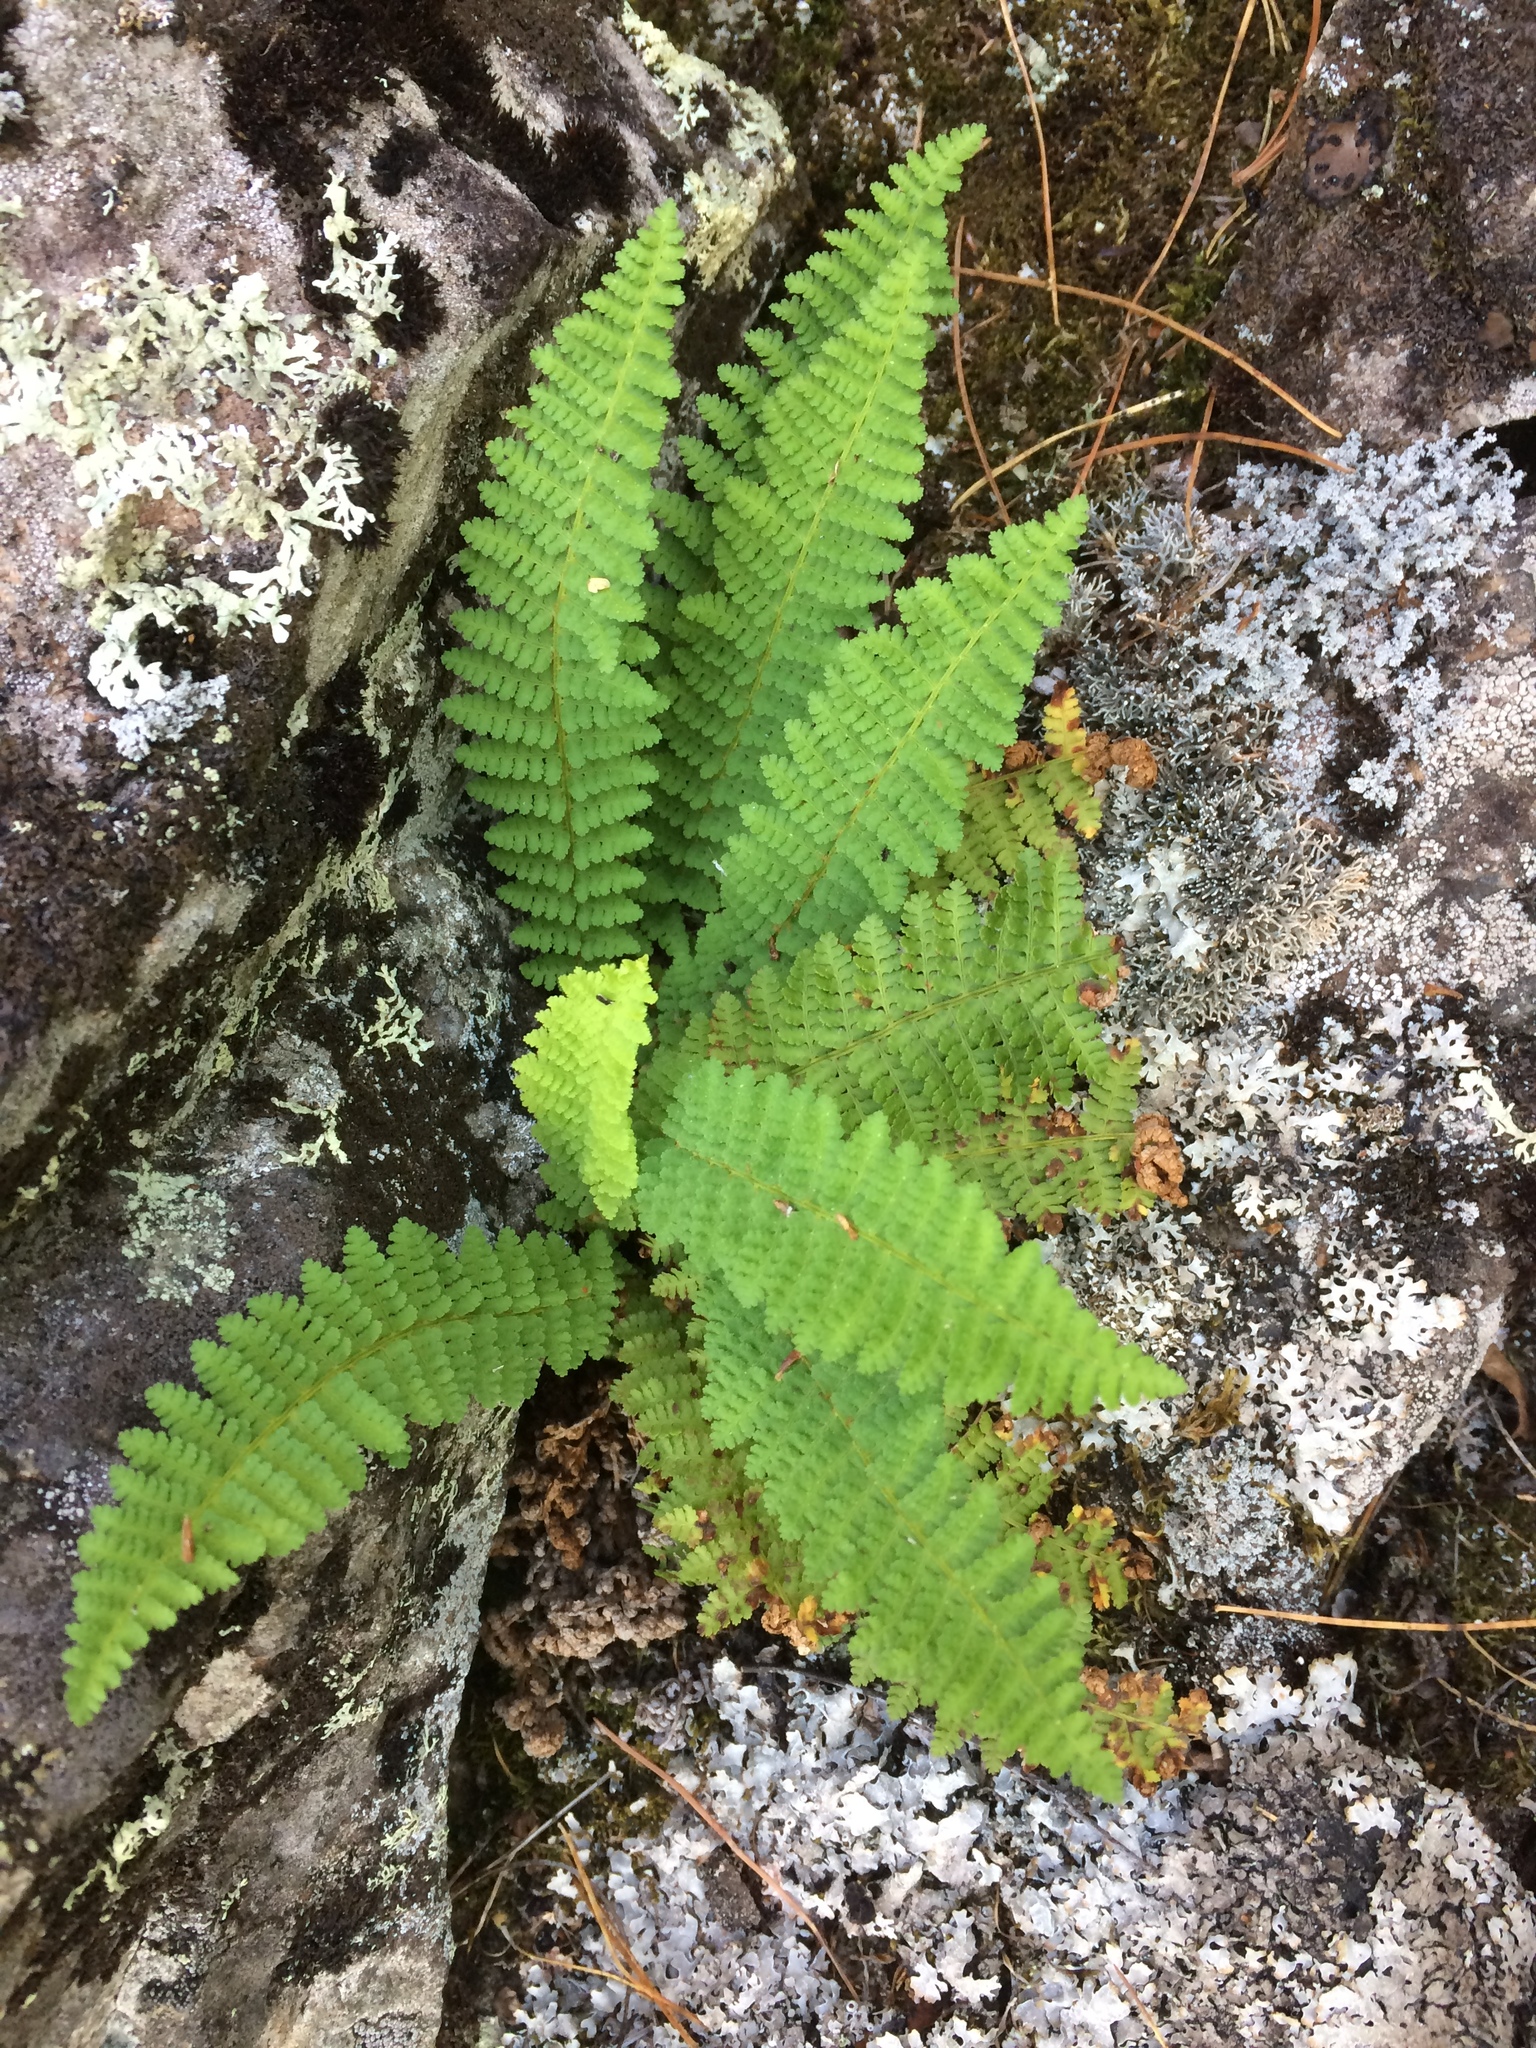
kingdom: Plantae
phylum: Tracheophyta
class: Polypodiopsida
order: Polypodiales
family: Dryopteridaceae
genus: Dryopteris
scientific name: Dryopteris fragrans
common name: Fragrant wood fern
